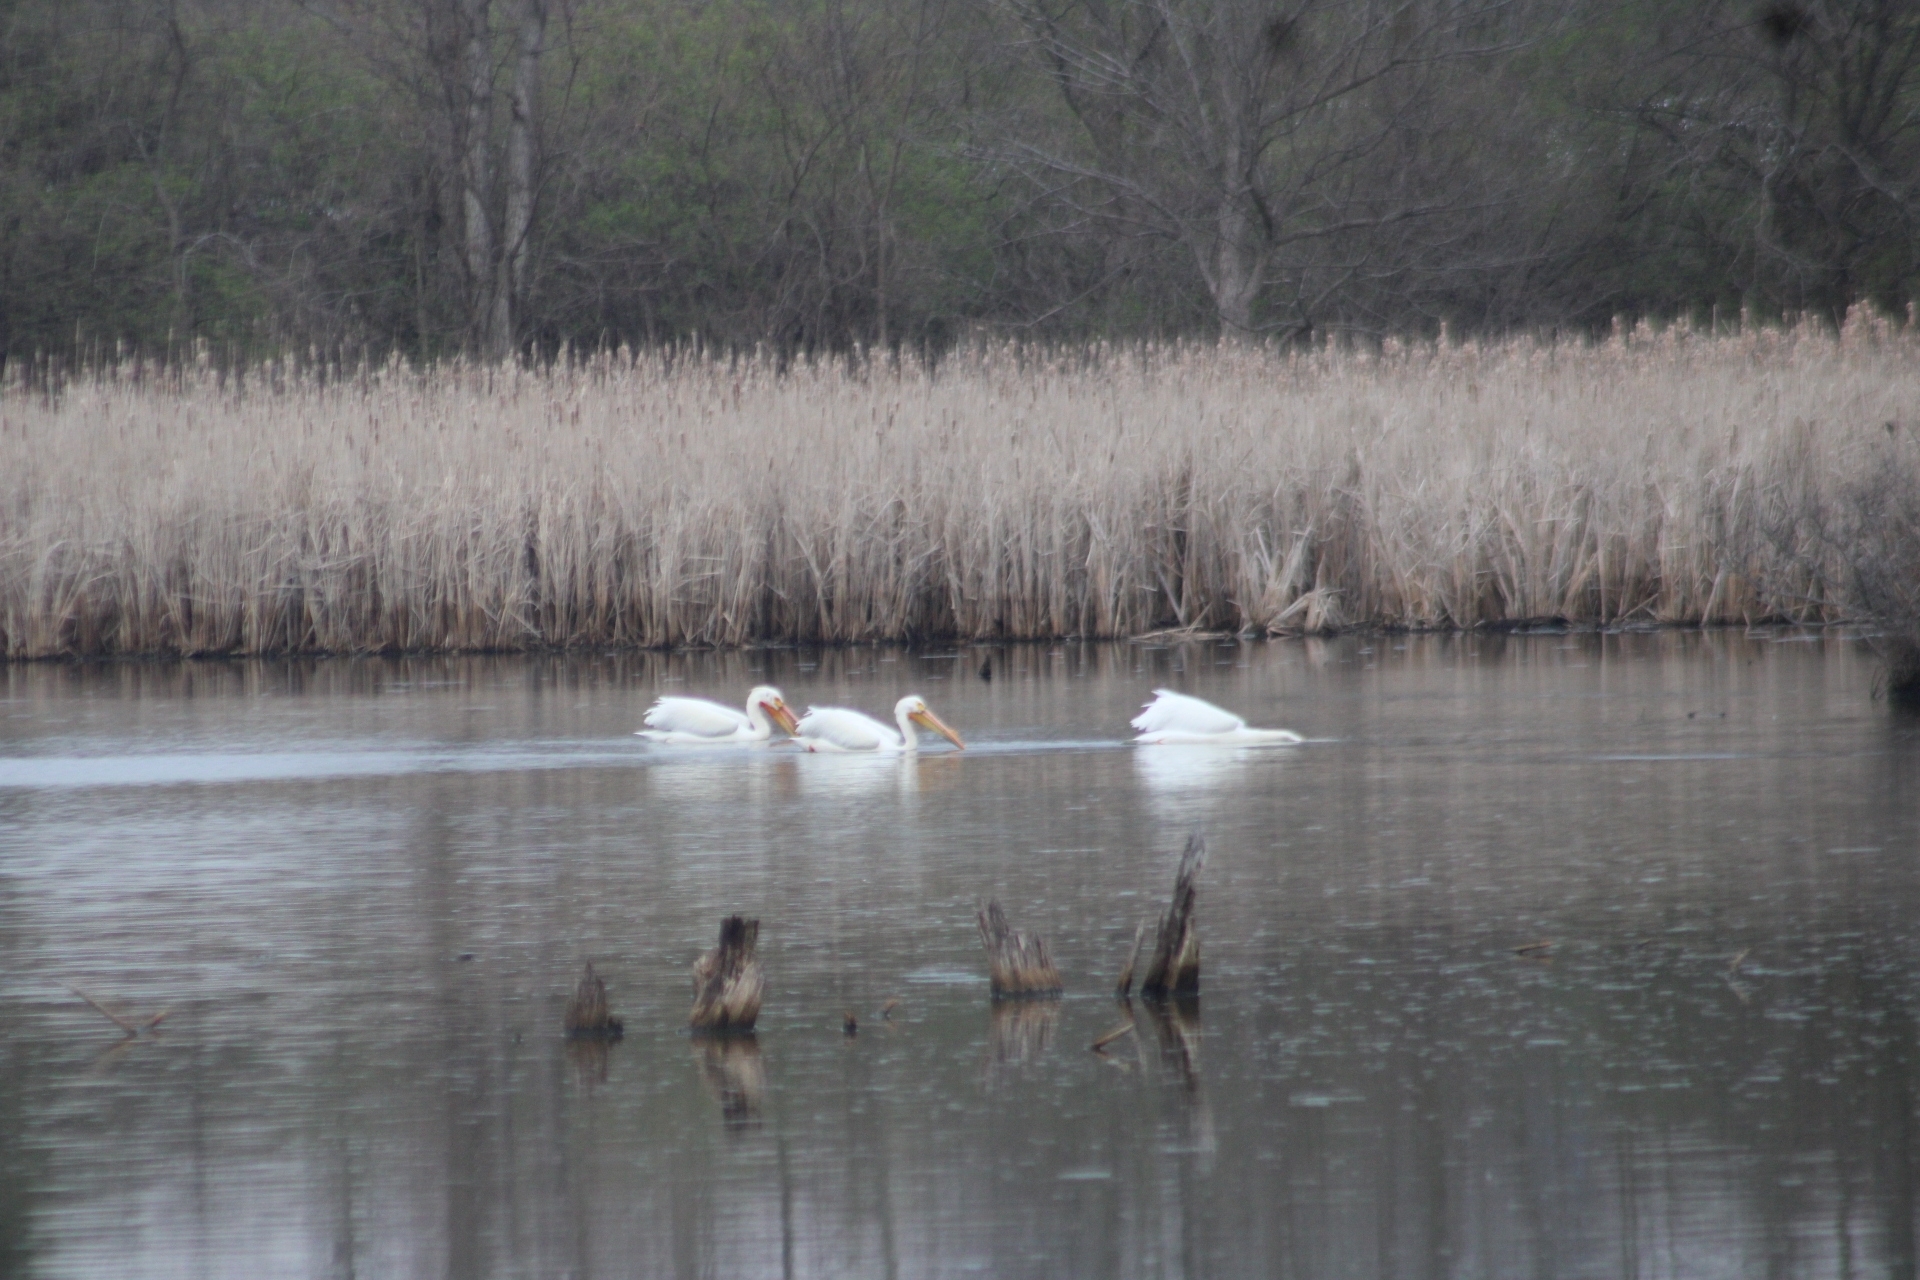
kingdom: Animalia
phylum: Chordata
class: Aves
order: Pelecaniformes
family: Pelecanidae
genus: Pelecanus
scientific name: Pelecanus erythrorhynchos
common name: American white pelican
